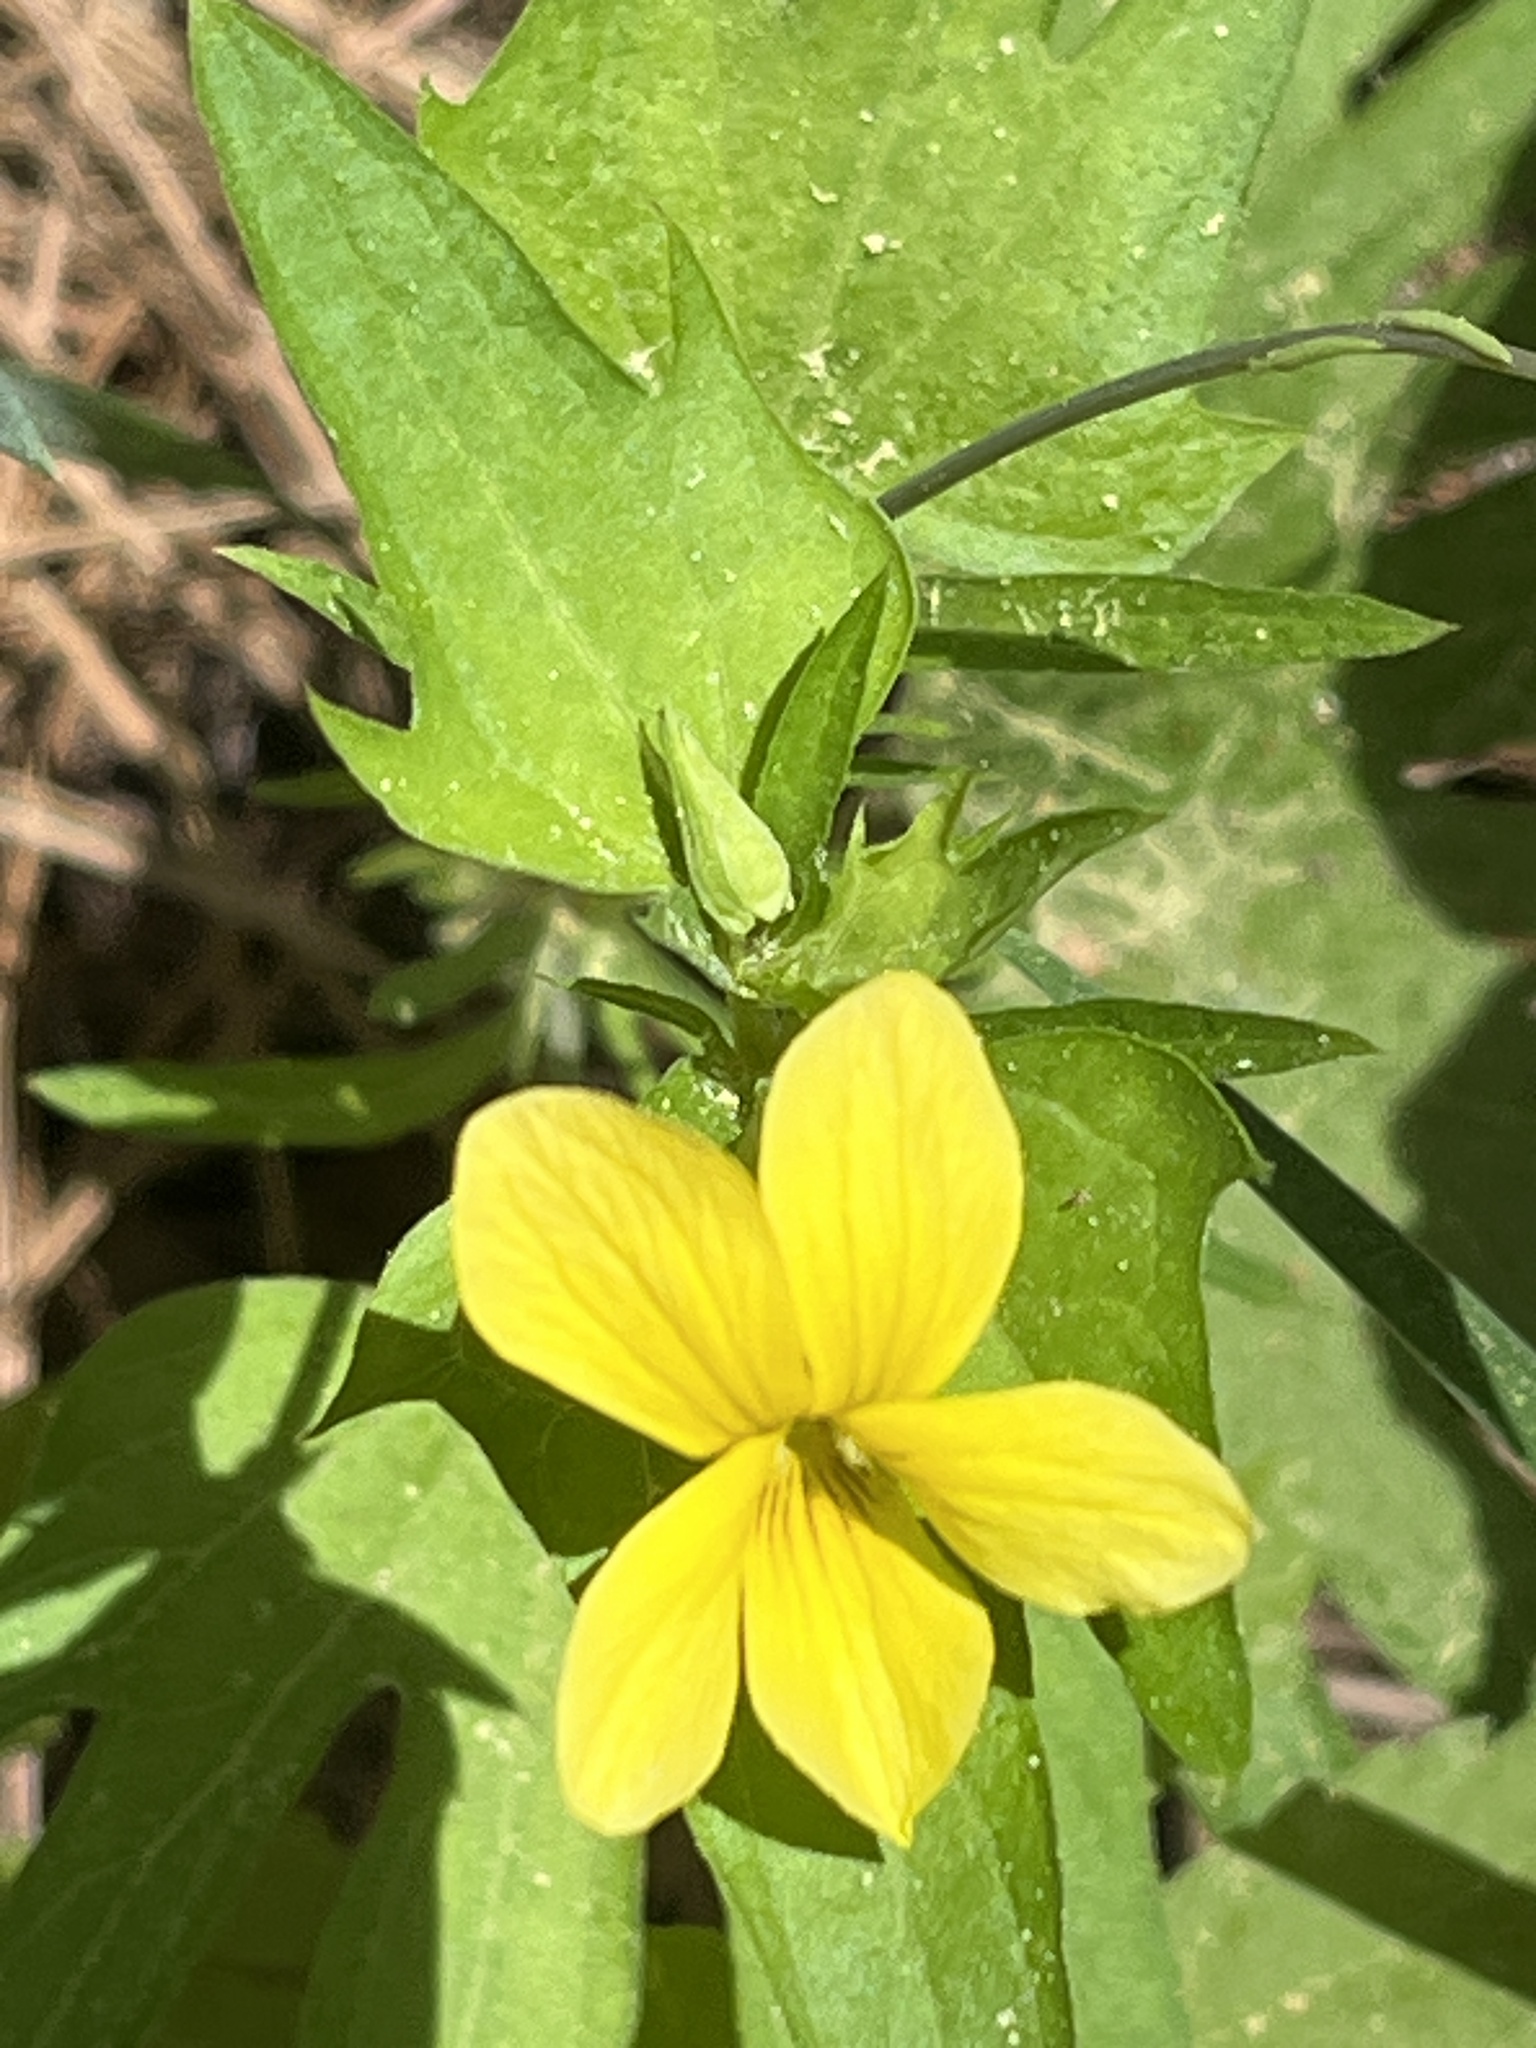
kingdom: Plantae
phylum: Tracheophyta
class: Magnoliopsida
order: Malpighiales
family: Violaceae
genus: Viola
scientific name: Viola lobata
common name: Pine violet
